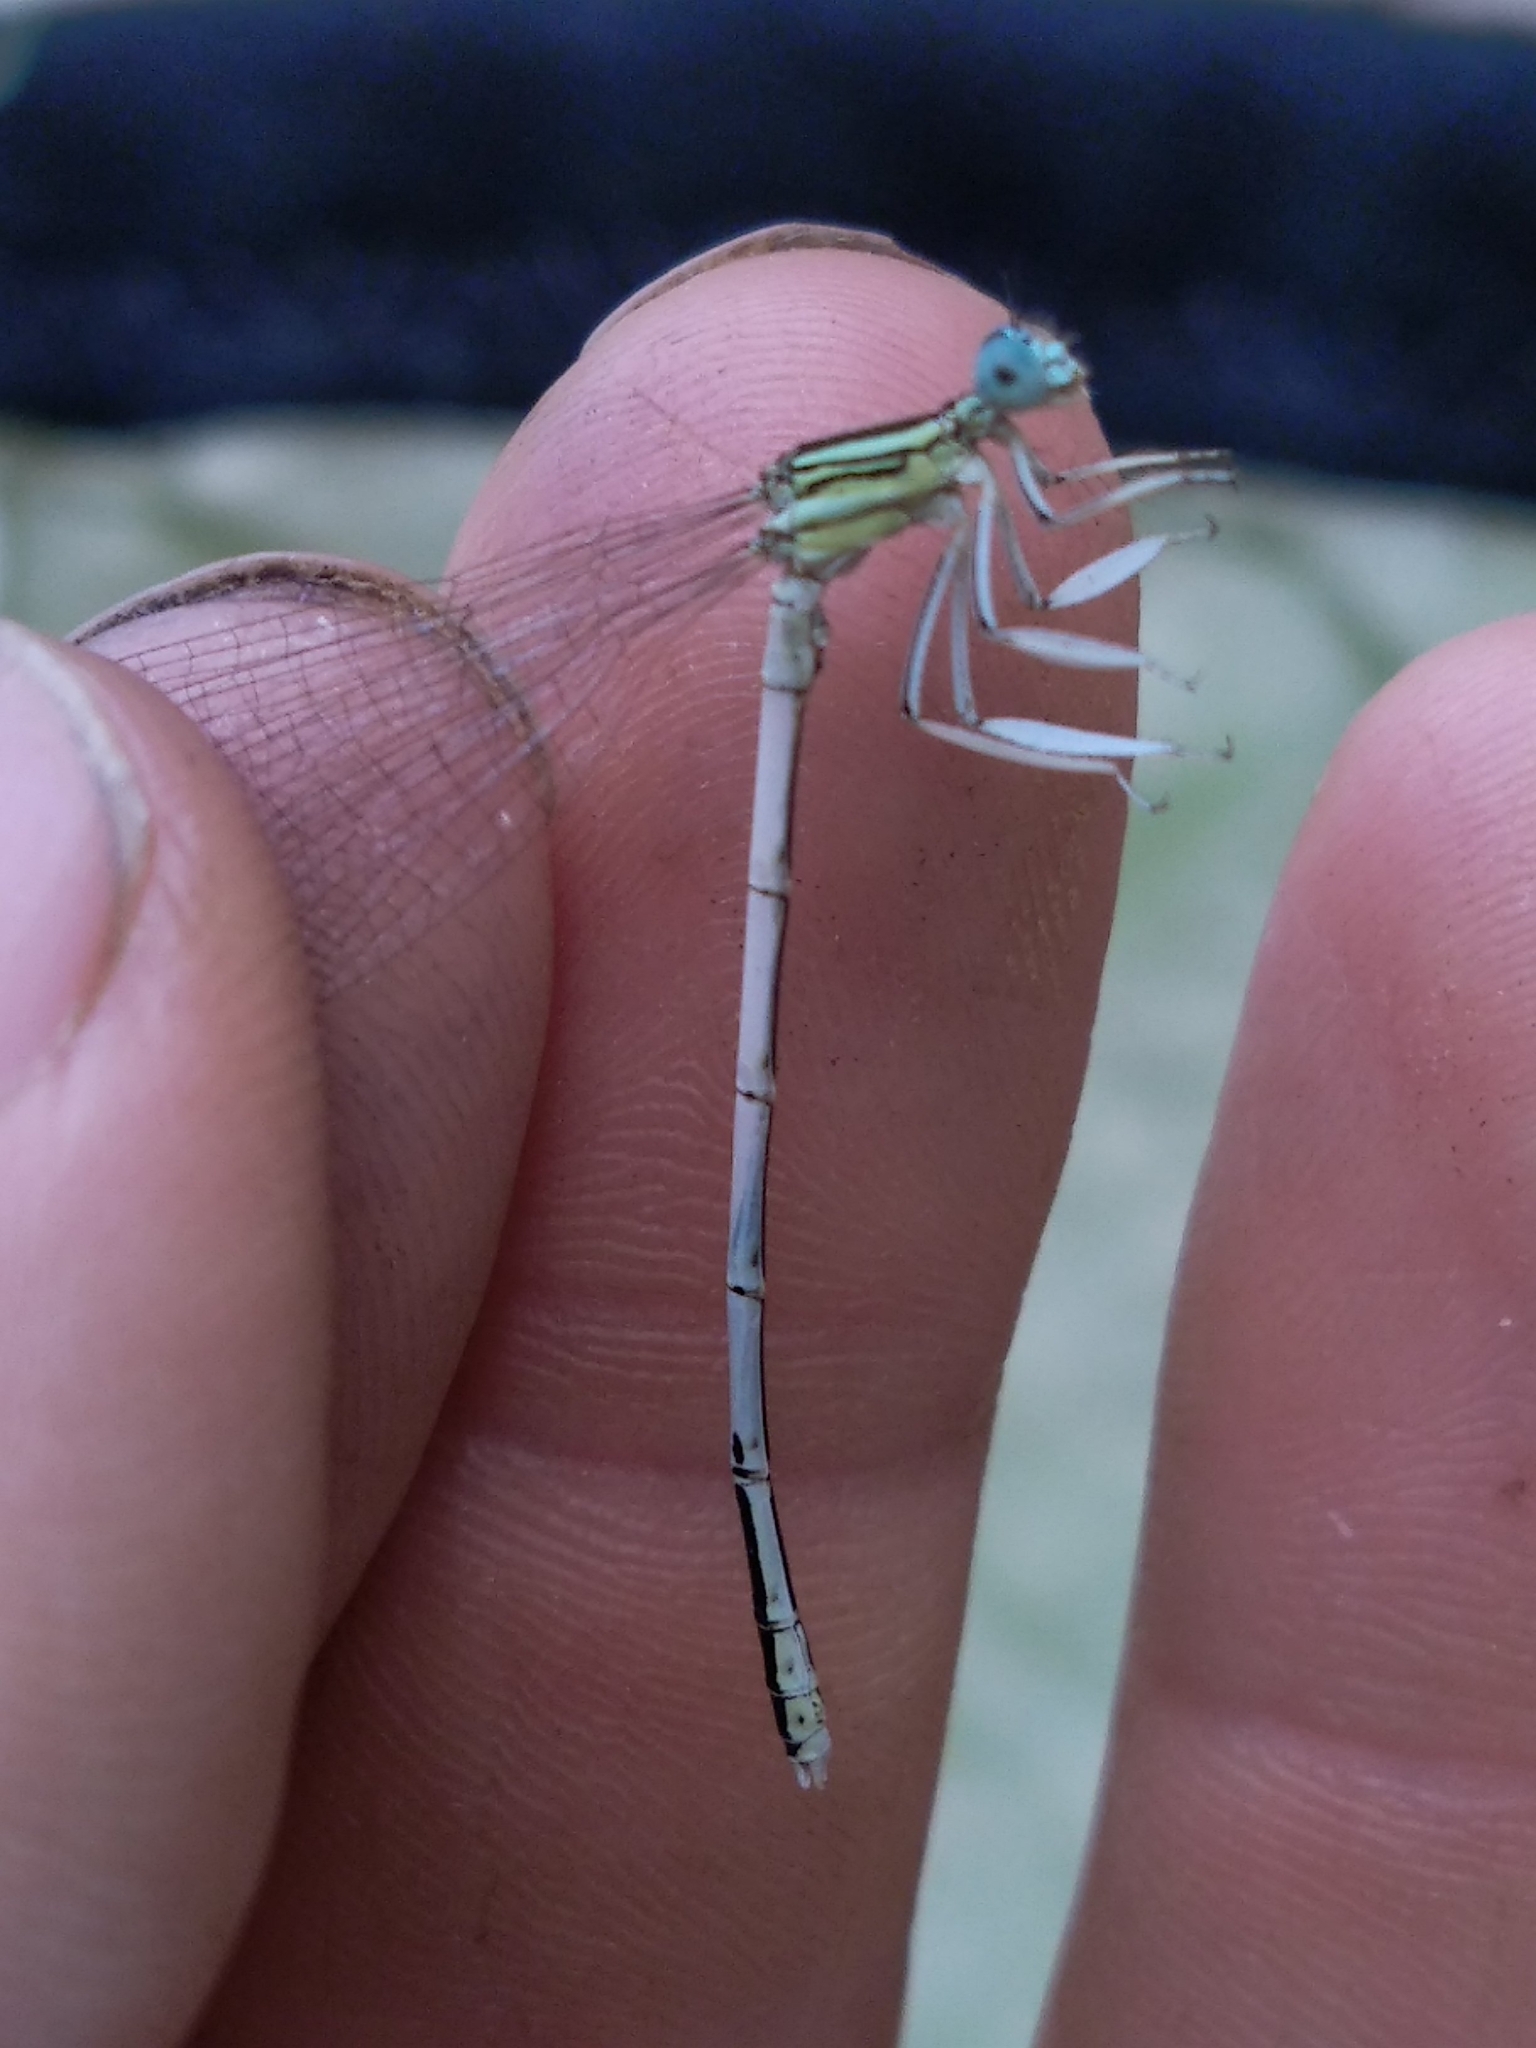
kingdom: Animalia
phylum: Arthropoda
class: Insecta
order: Odonata
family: Platycnemididae
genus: Platycnemis
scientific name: Platycnemis latipes
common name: White featherleg
